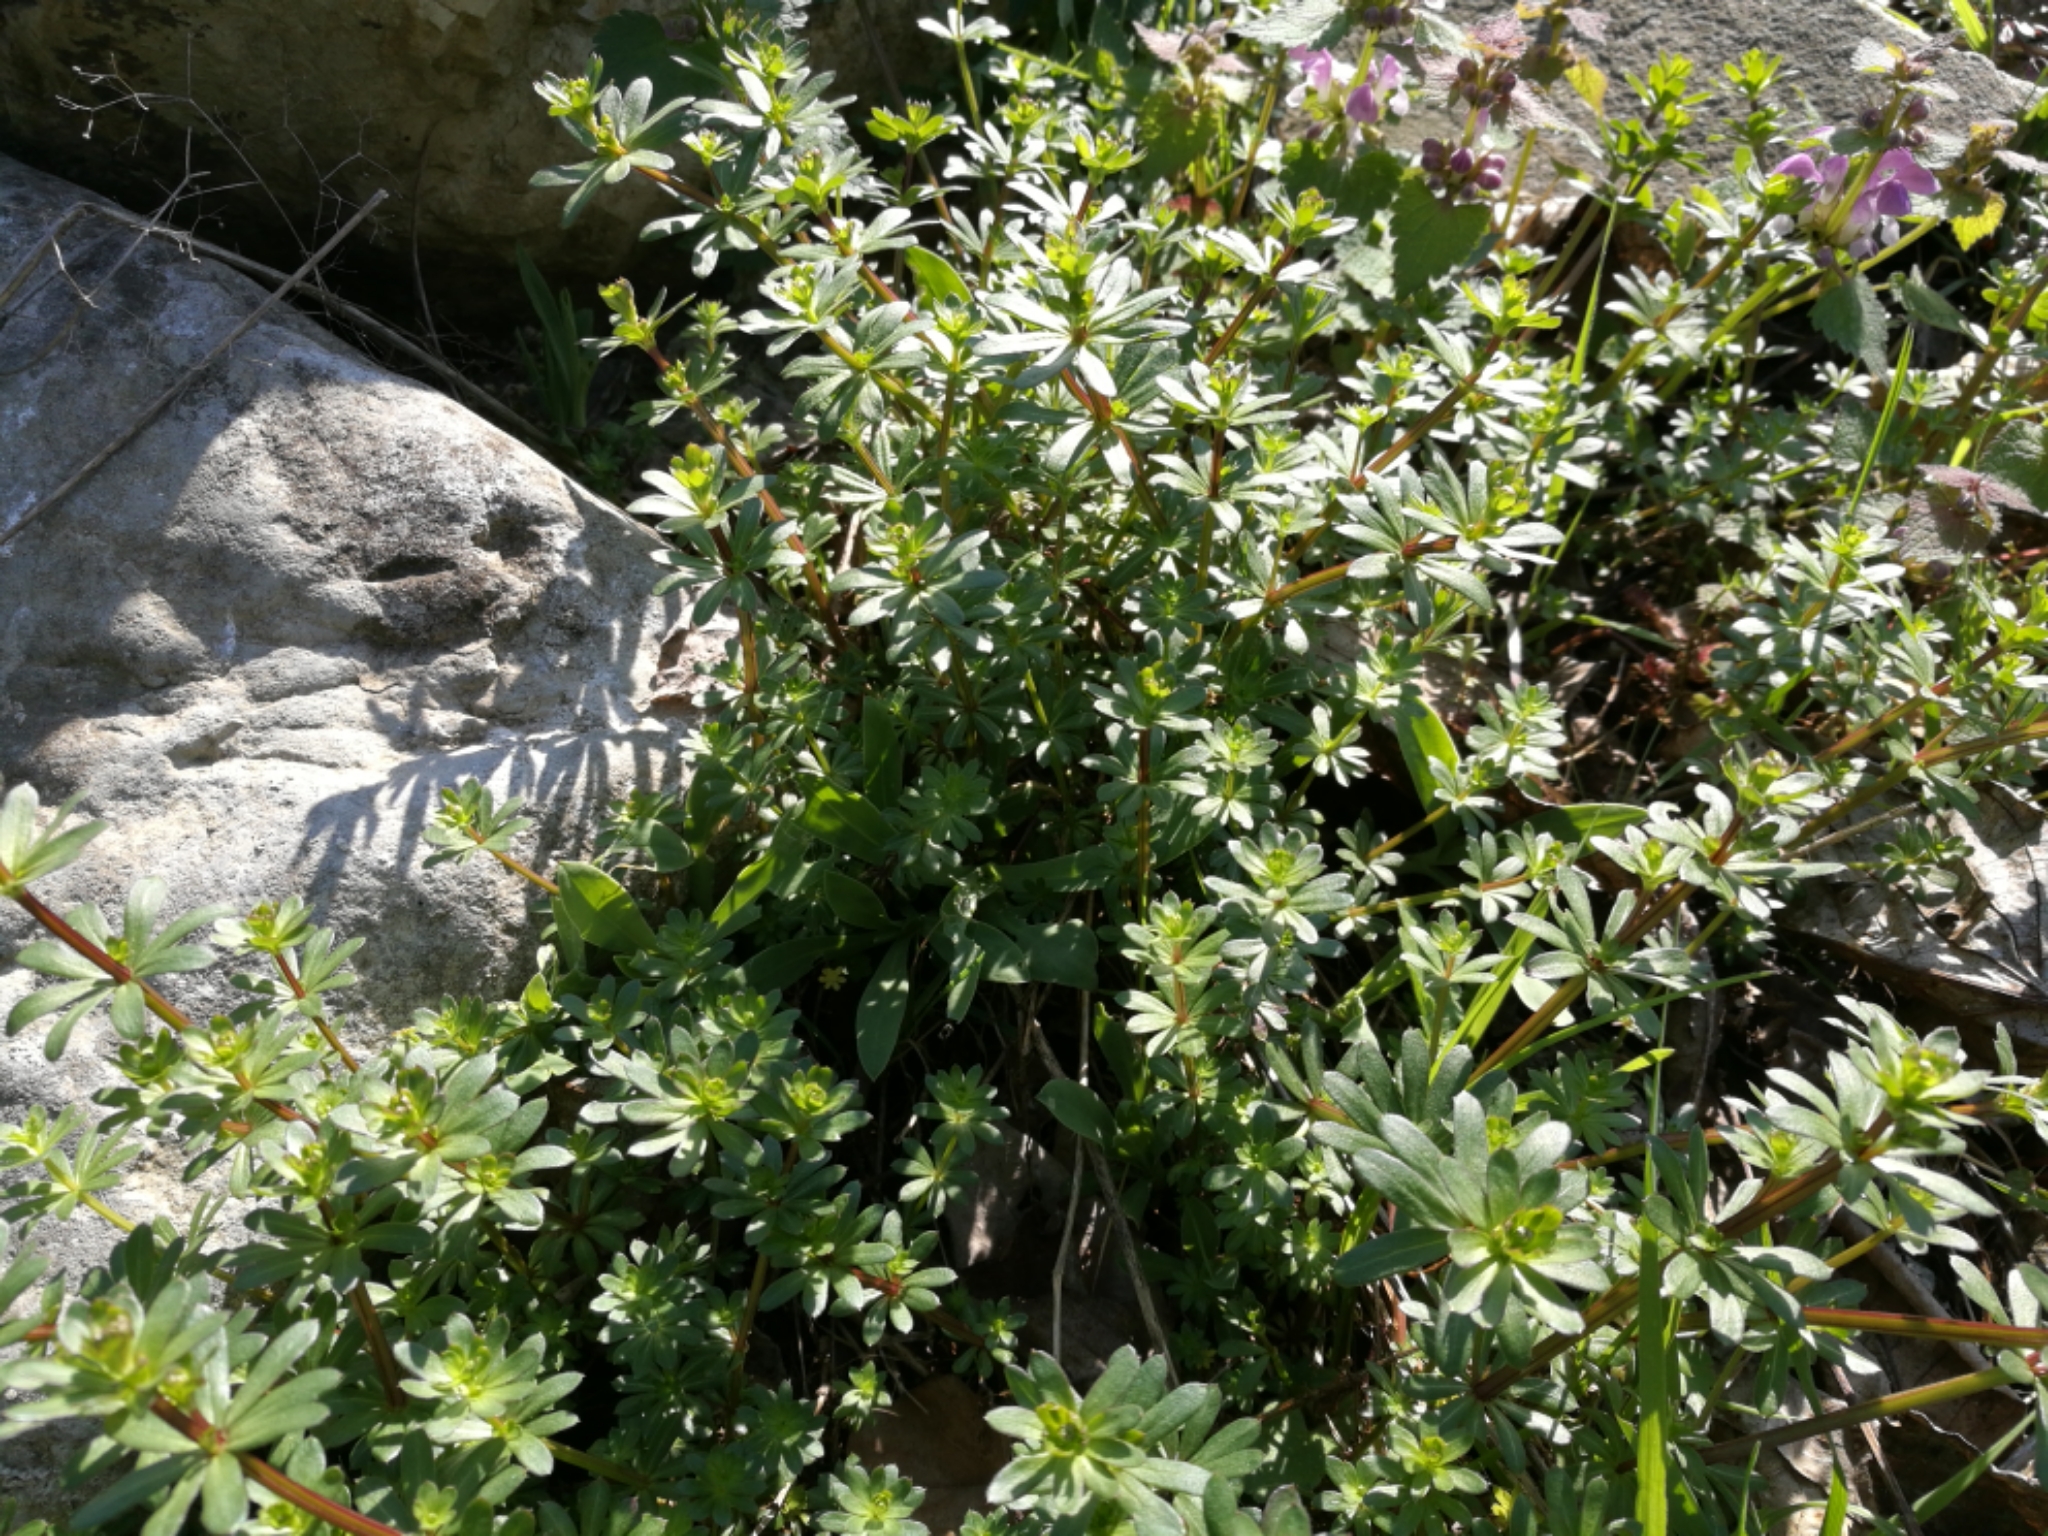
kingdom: Plantae
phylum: Tracheophyta
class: Magnoliopsida
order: Gentianales
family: Rubiaceae
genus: Galium
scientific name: Galium mollugo
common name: Hedge bedstraw
